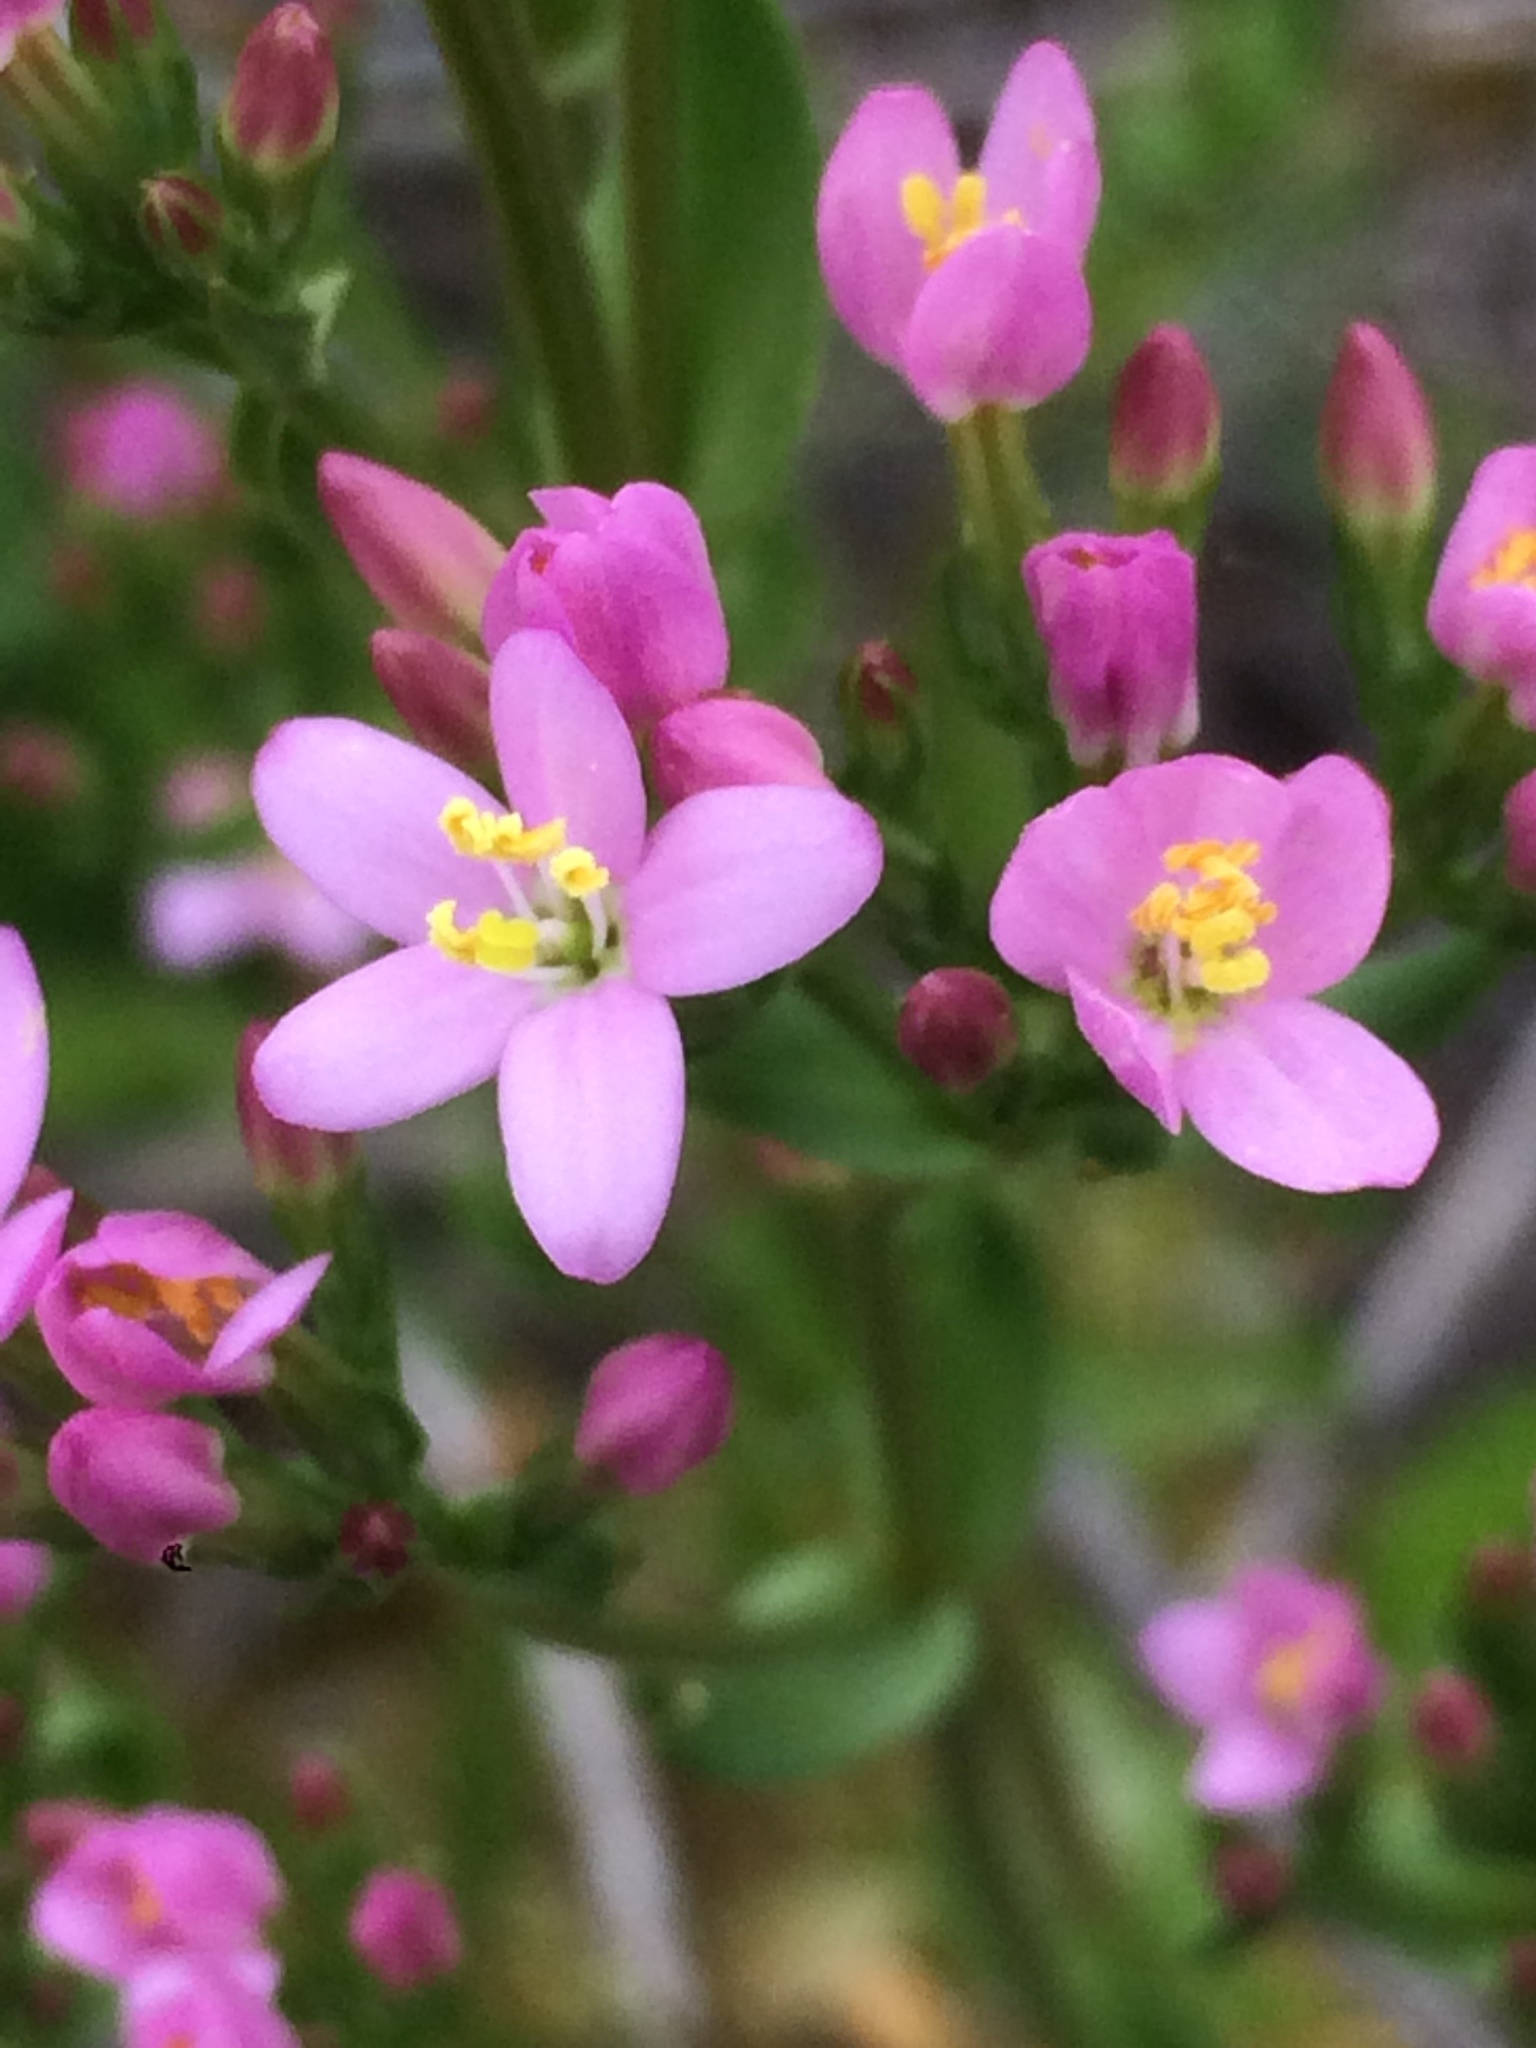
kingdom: Plantae
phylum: Tracheophyta
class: Magnoliopsida
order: Gentianales
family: Gentianaceae
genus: Centaurium
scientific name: Centaurium erythraea
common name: Common centaury
